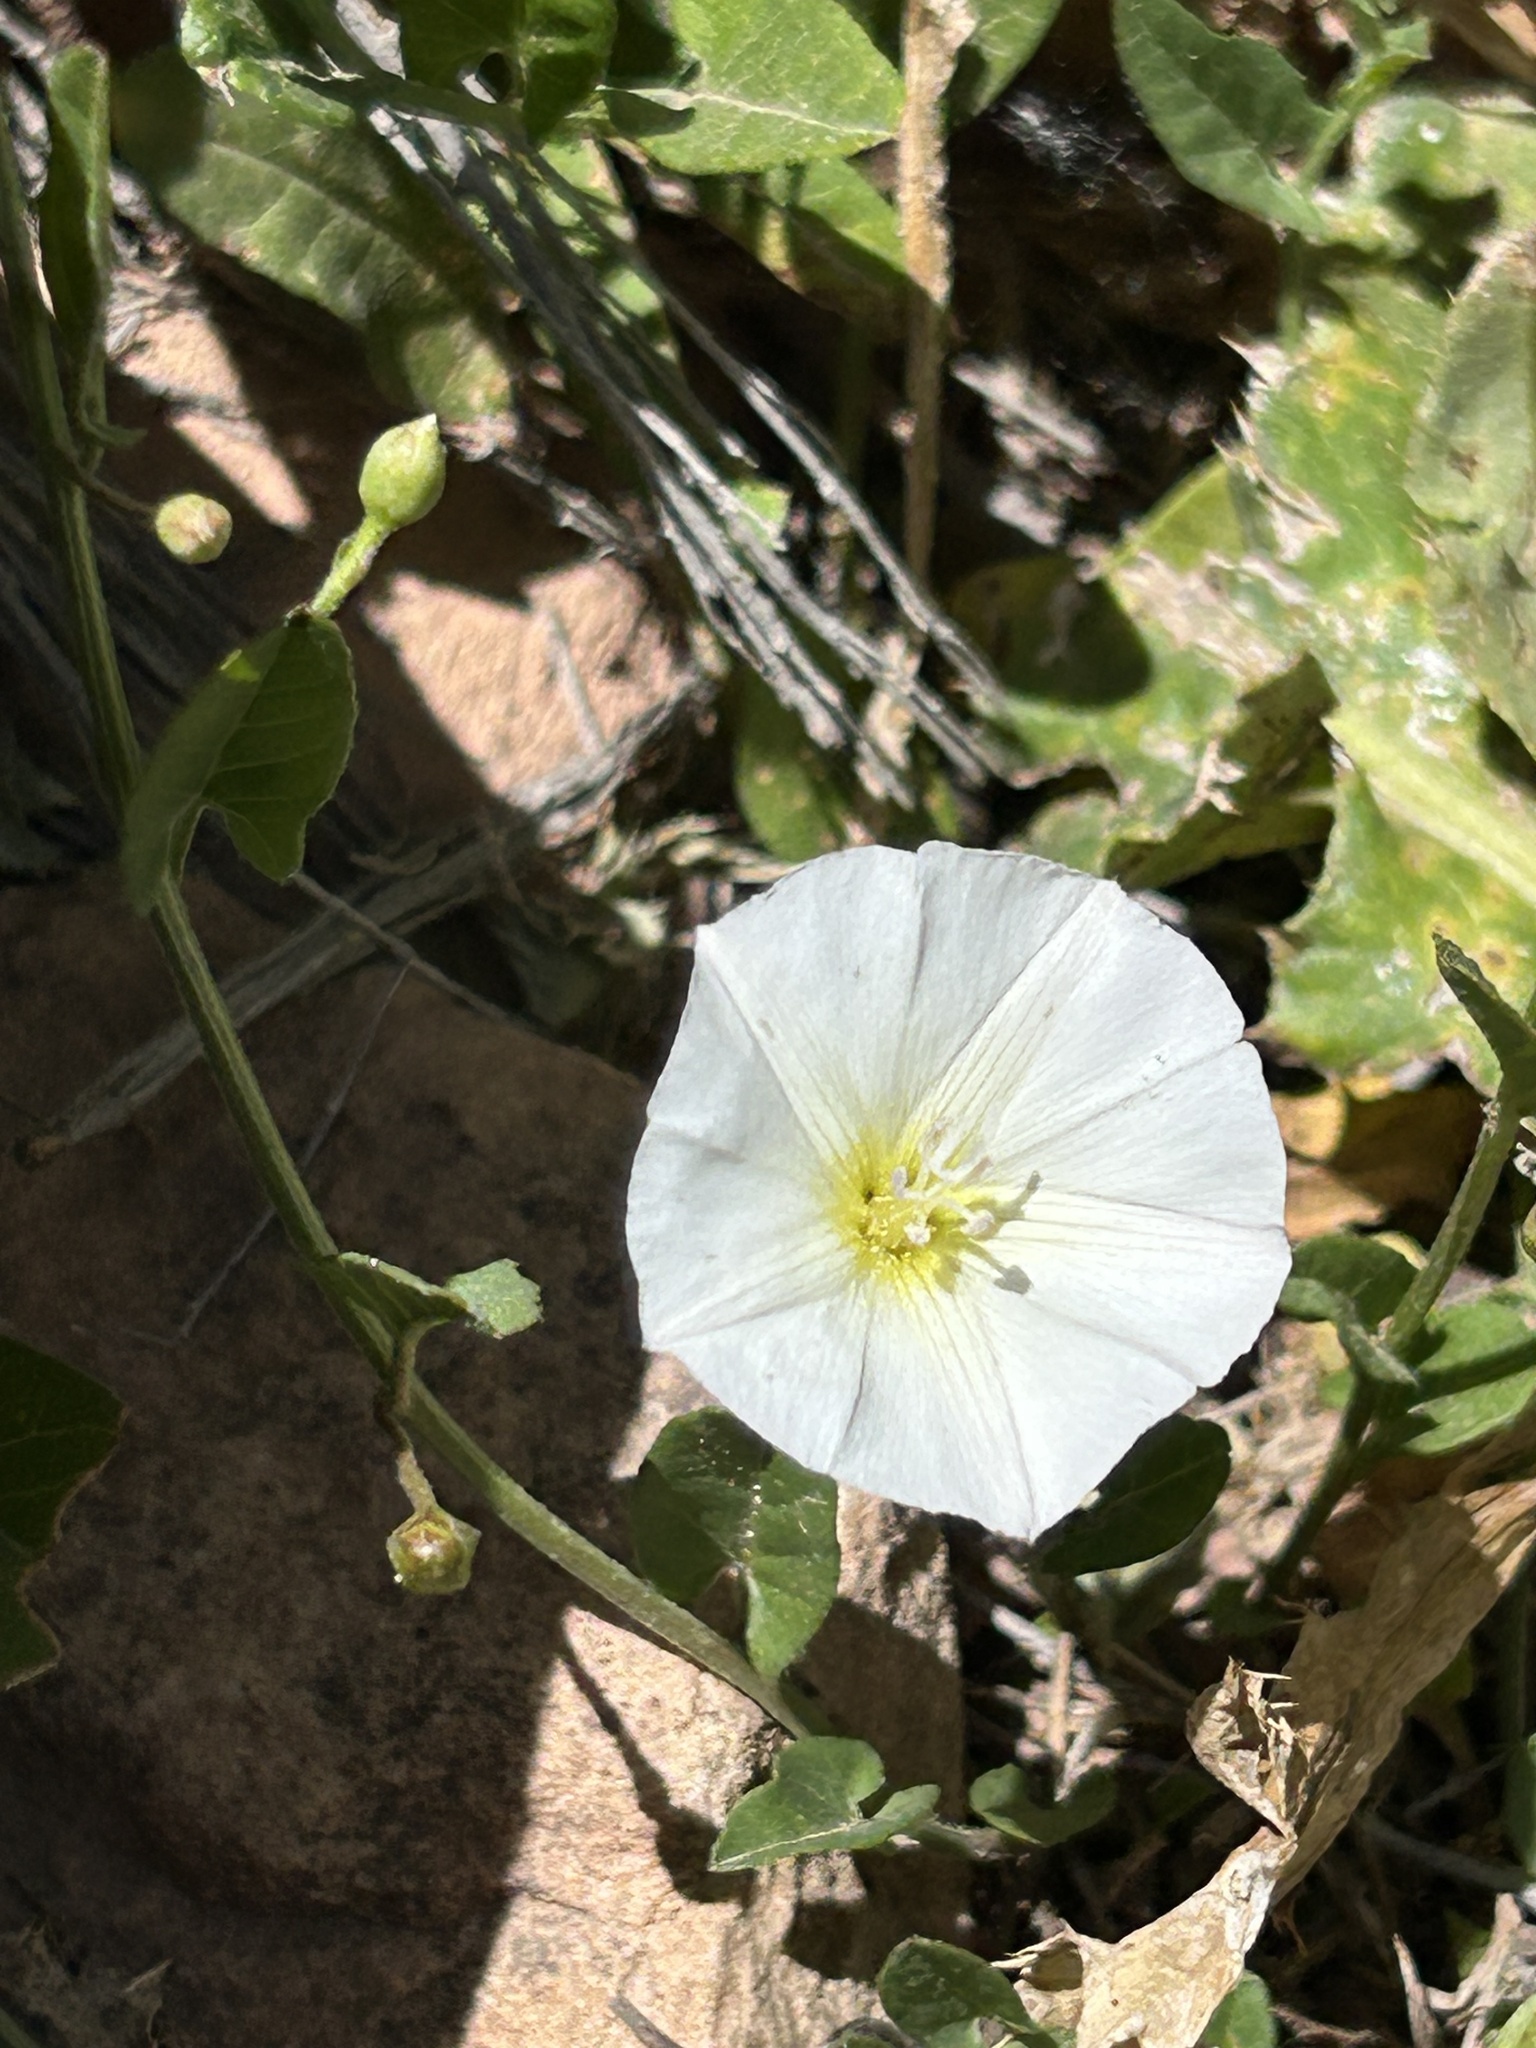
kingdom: Plantae
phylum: Tracheophyta
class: Magnoliopsida
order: Solanales
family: Convolvulaceae
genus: Convolvulus
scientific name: Convolvulus arvensis
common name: Field bindweed
